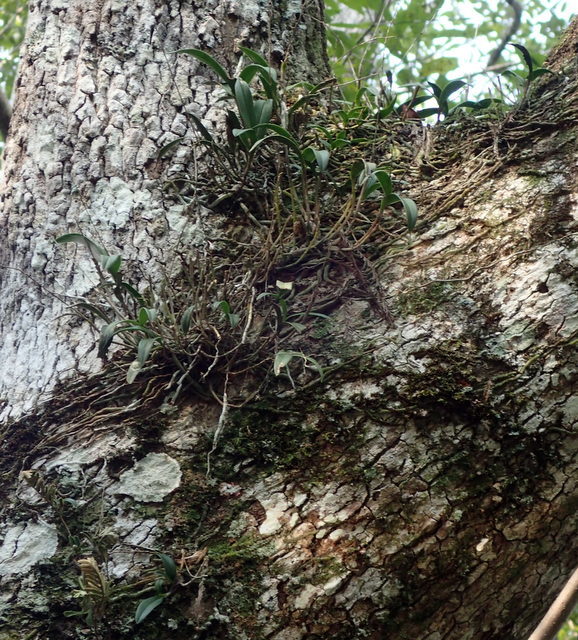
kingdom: Plantae
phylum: Tracheophyta
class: Liliopsida
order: Asparagales
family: Orchidaceae
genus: Epidendrum
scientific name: Epidendrum conopseum
